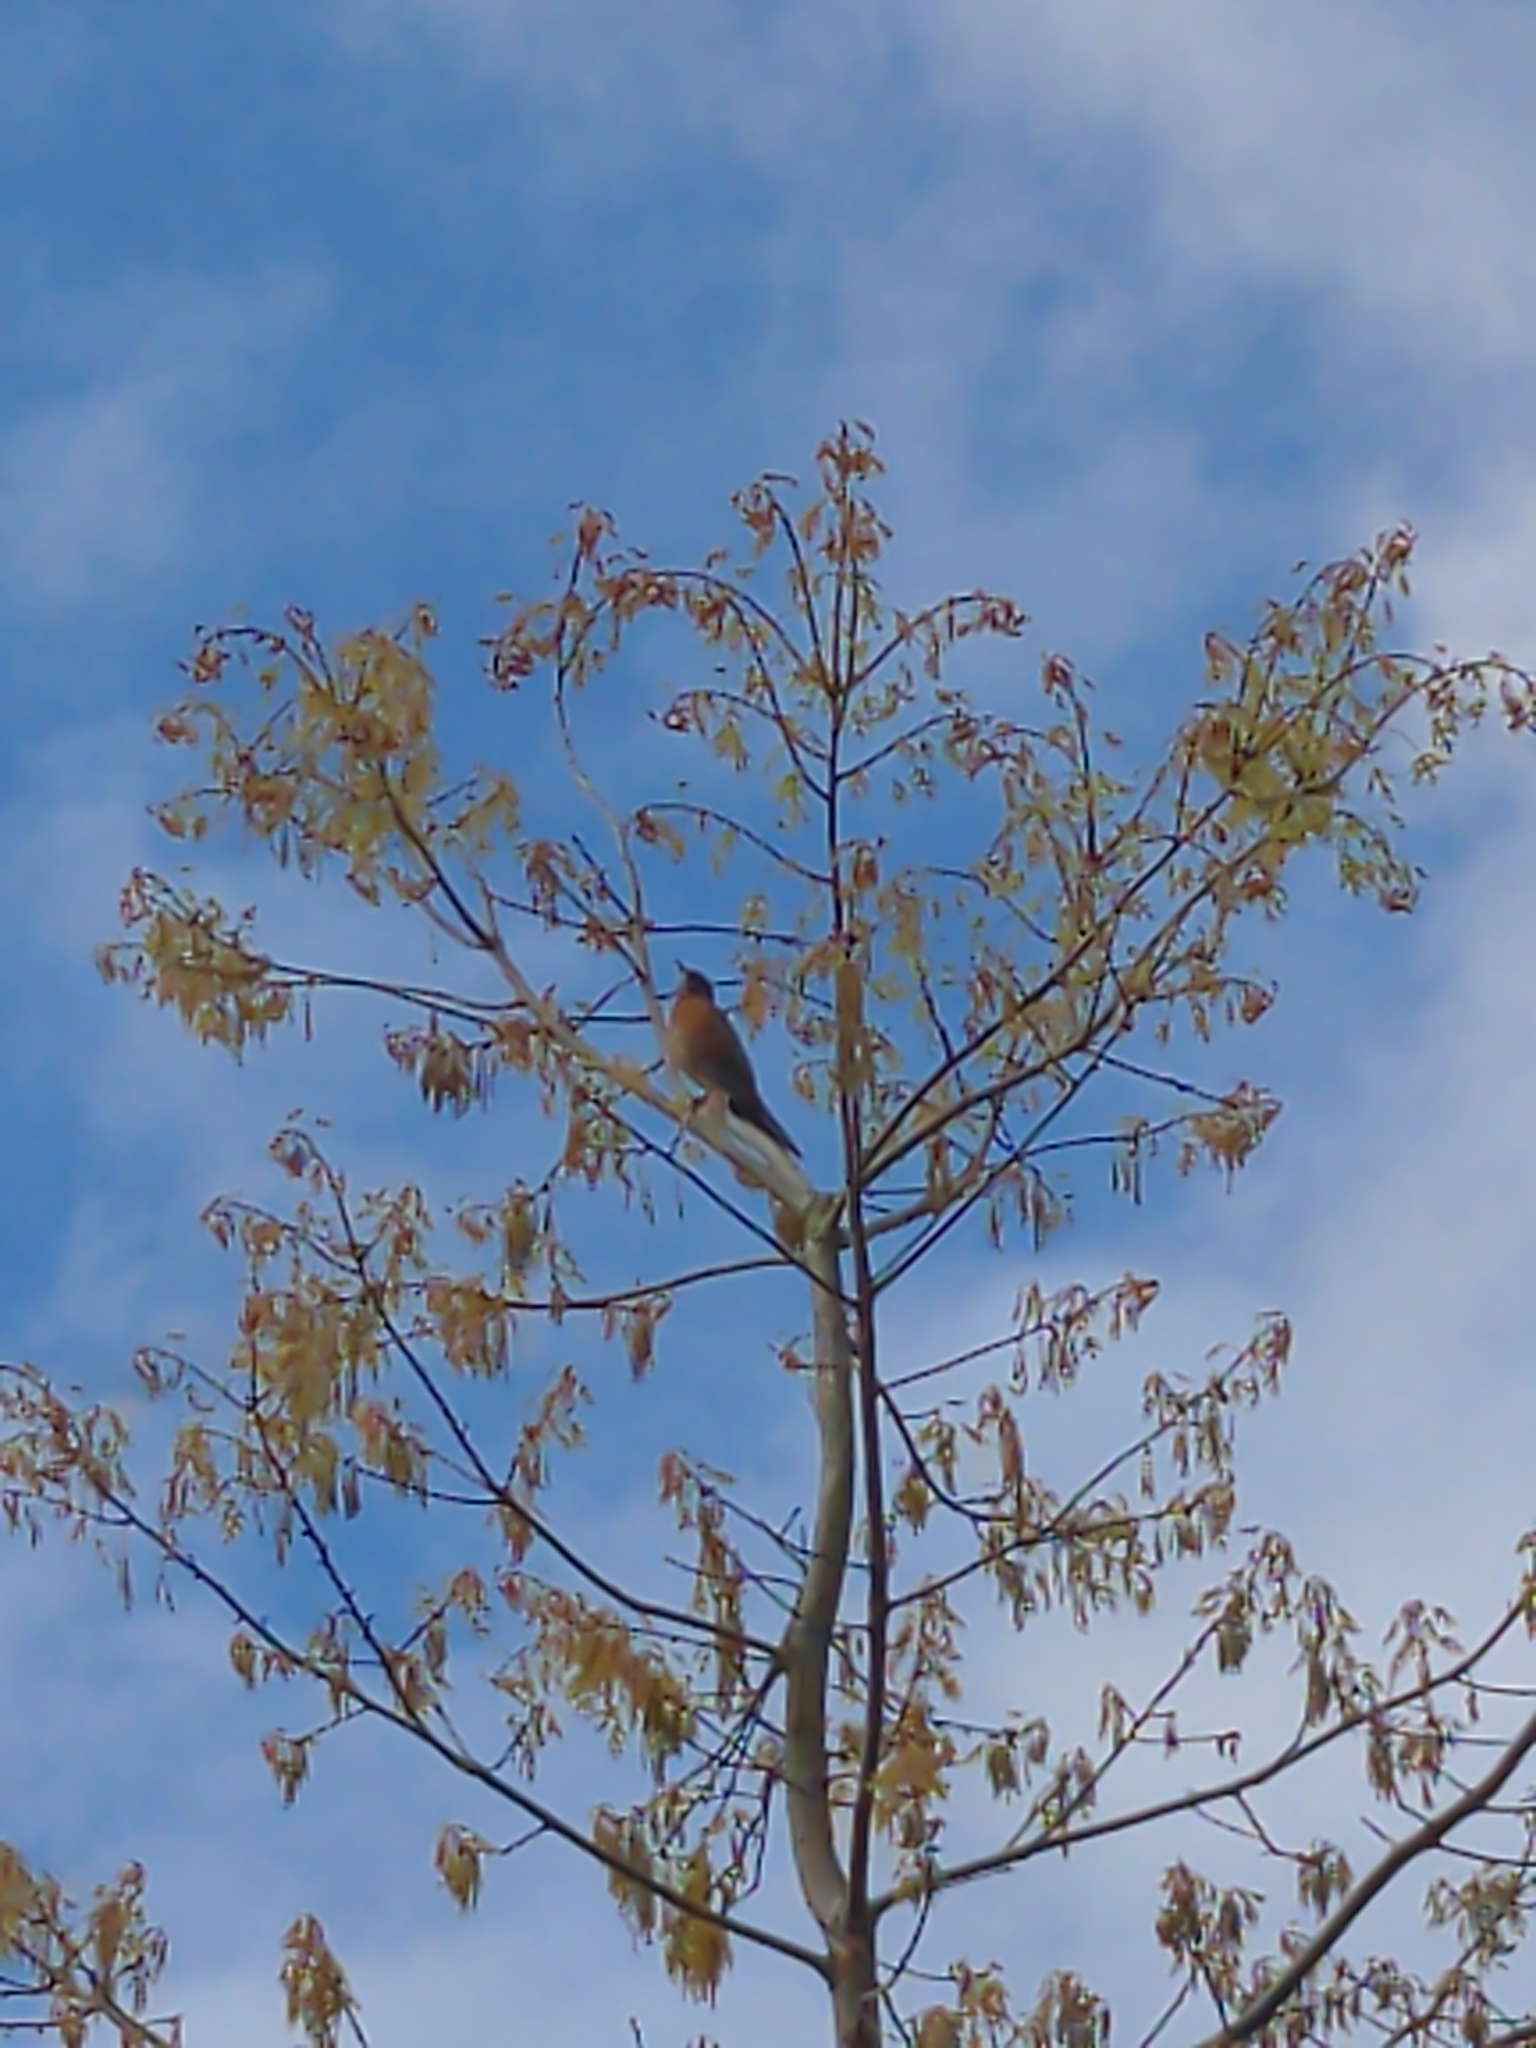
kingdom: Animalia
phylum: Chordata
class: Aves
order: Passeriformes
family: Turdidae
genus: Turdus
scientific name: Turdus migratorius
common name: American robin
